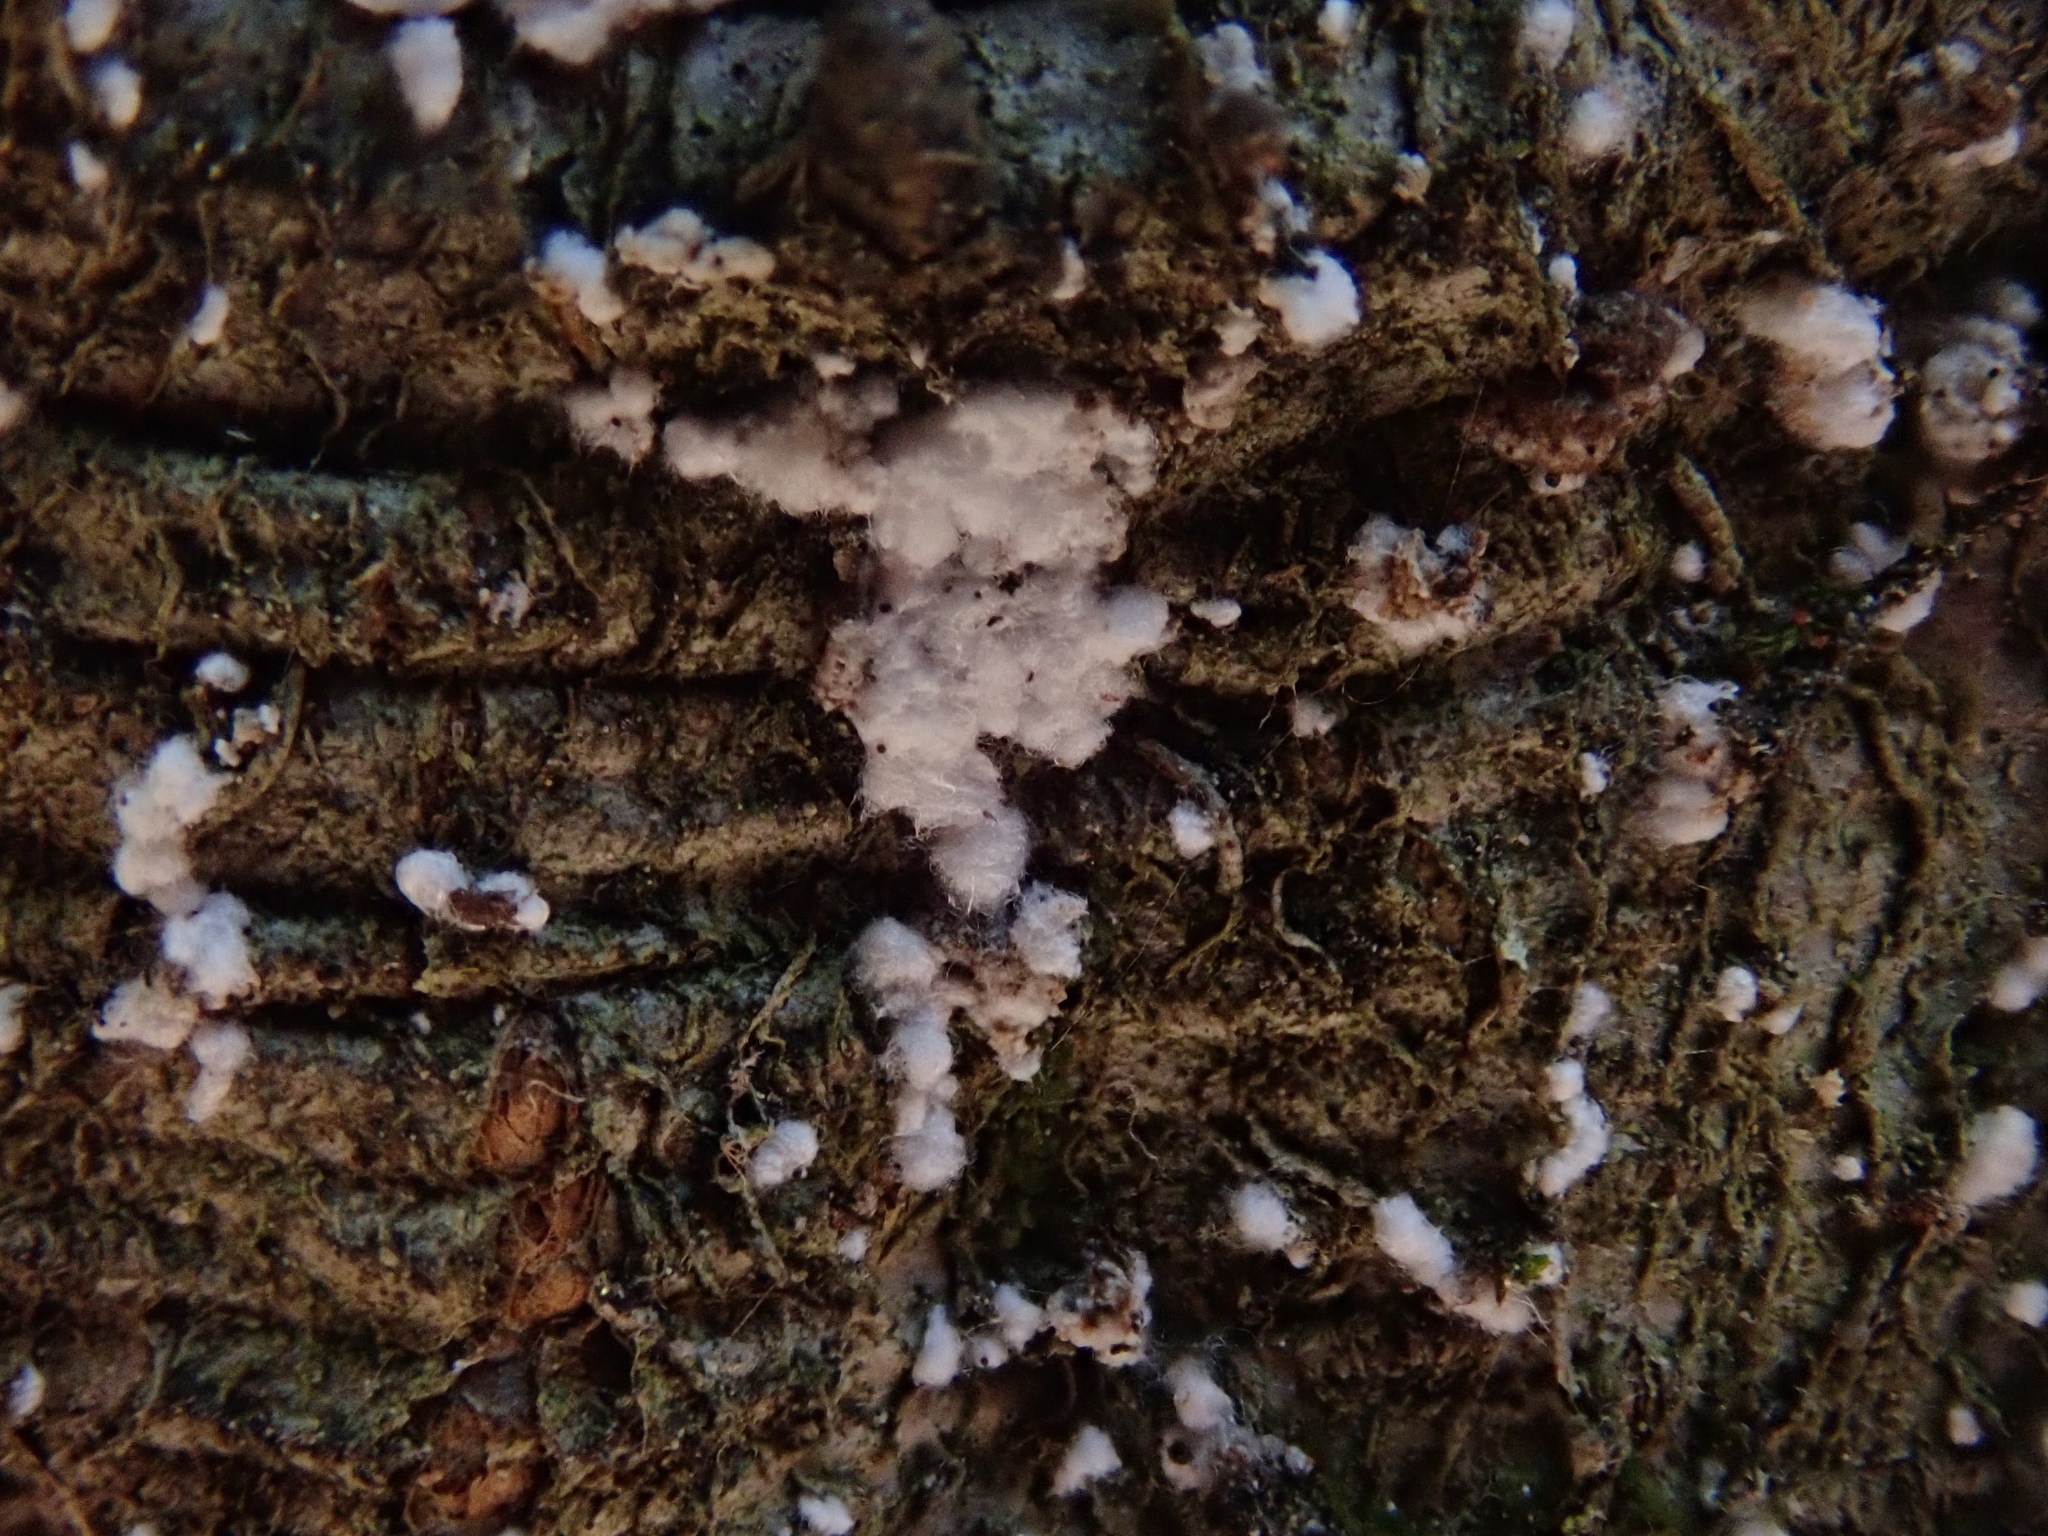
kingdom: Animalia
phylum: Arthropoda
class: Insecta
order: Hemiptera
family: Eriococcidae
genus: Cryptococcus
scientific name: Cryptococcus fagisuga
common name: Beech scale
